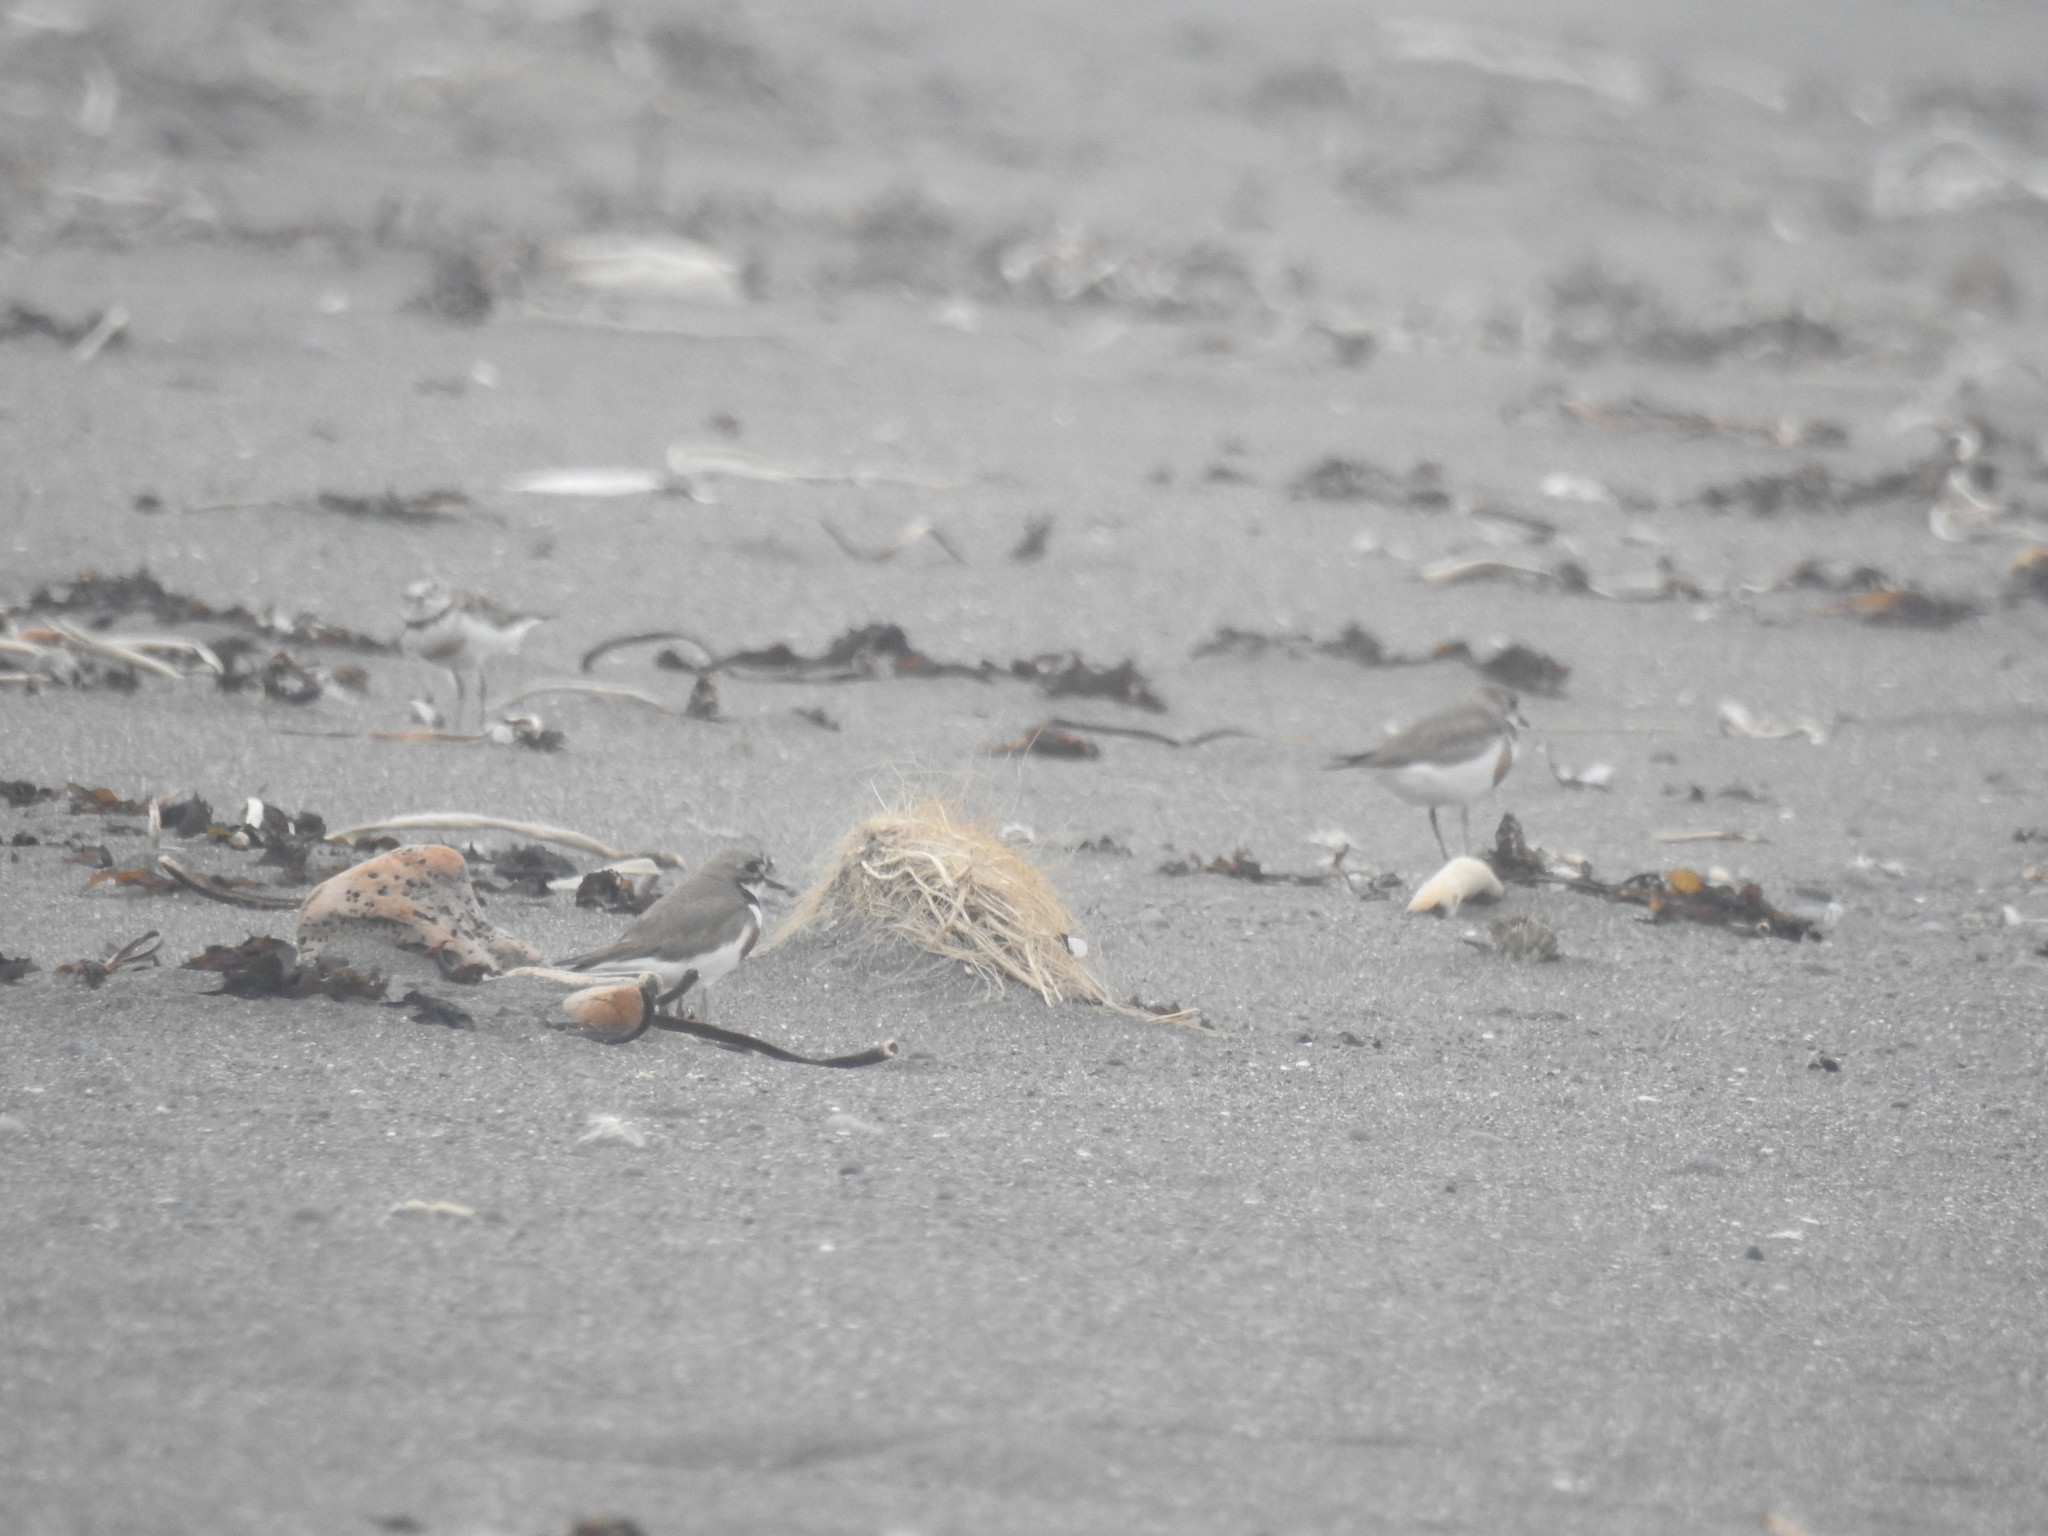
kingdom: Animalia
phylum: Chordata
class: Aves
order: Charadriiformes
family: Charadriidae
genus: Anarhynchus
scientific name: Anarhynchus
